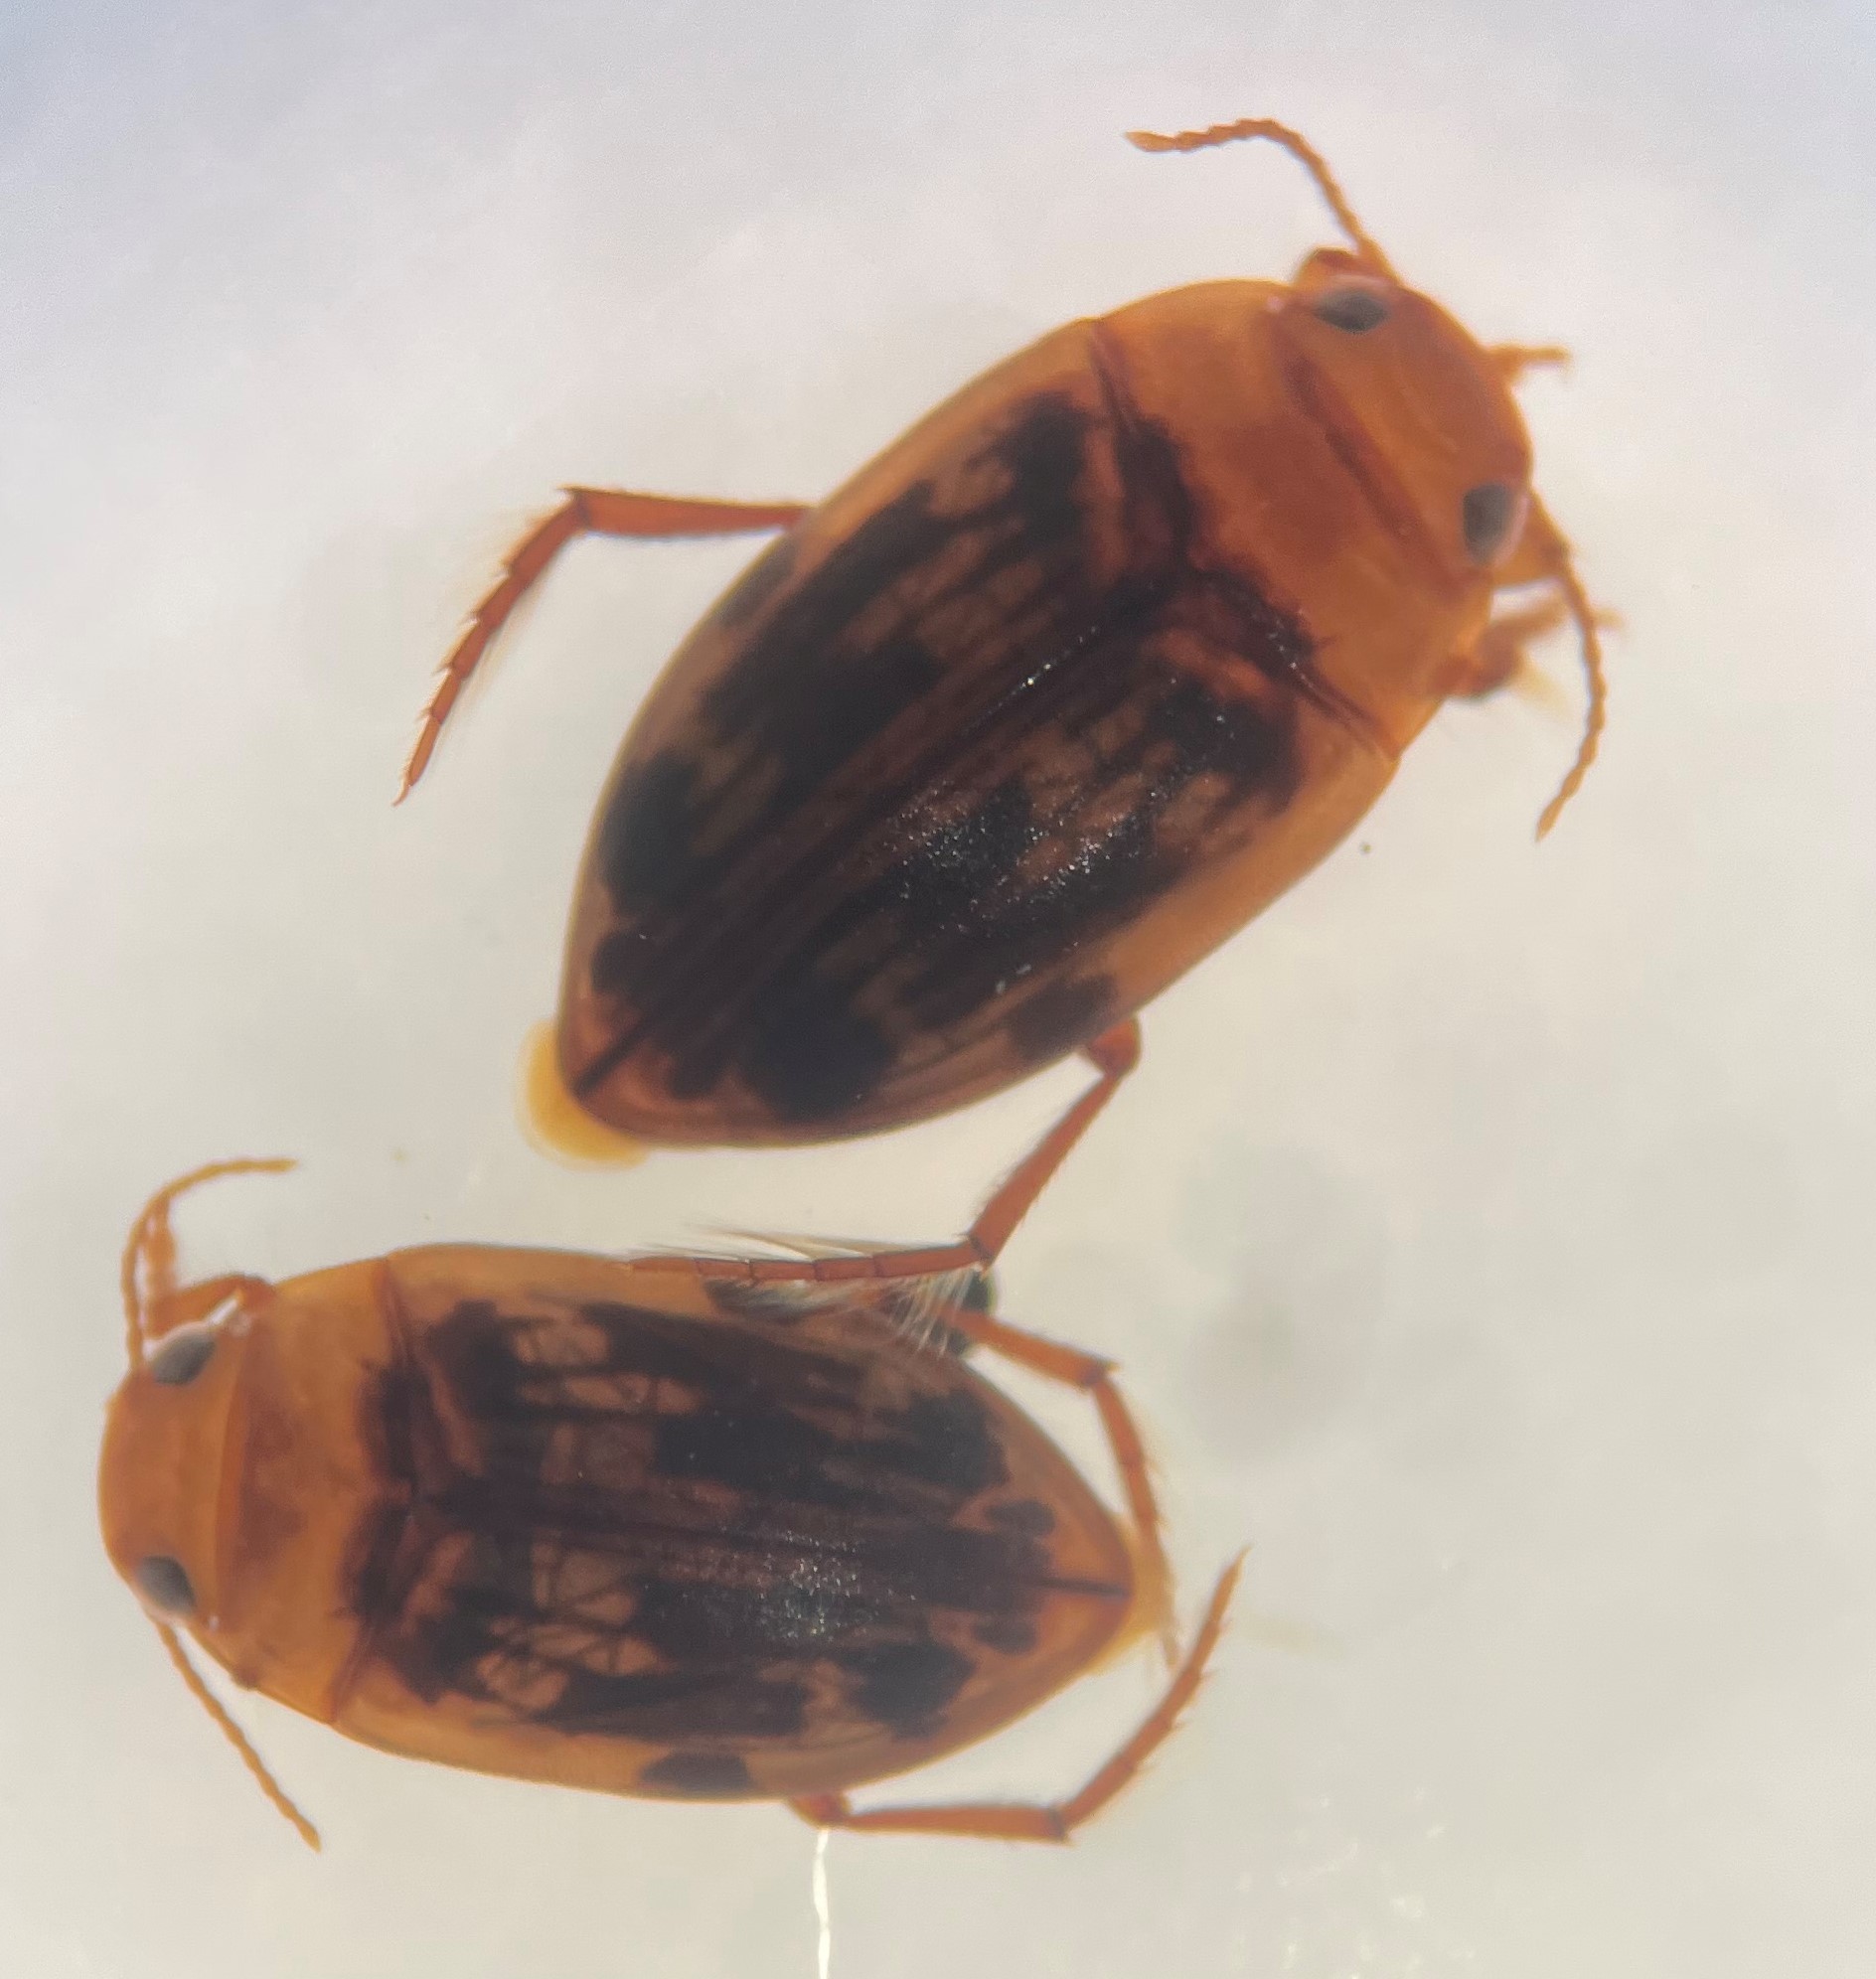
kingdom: Animalia
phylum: Arthropoda
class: Insecta
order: Coleoptera
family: Dytiscidae
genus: Neoporus
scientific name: Neoporus arizonicus
